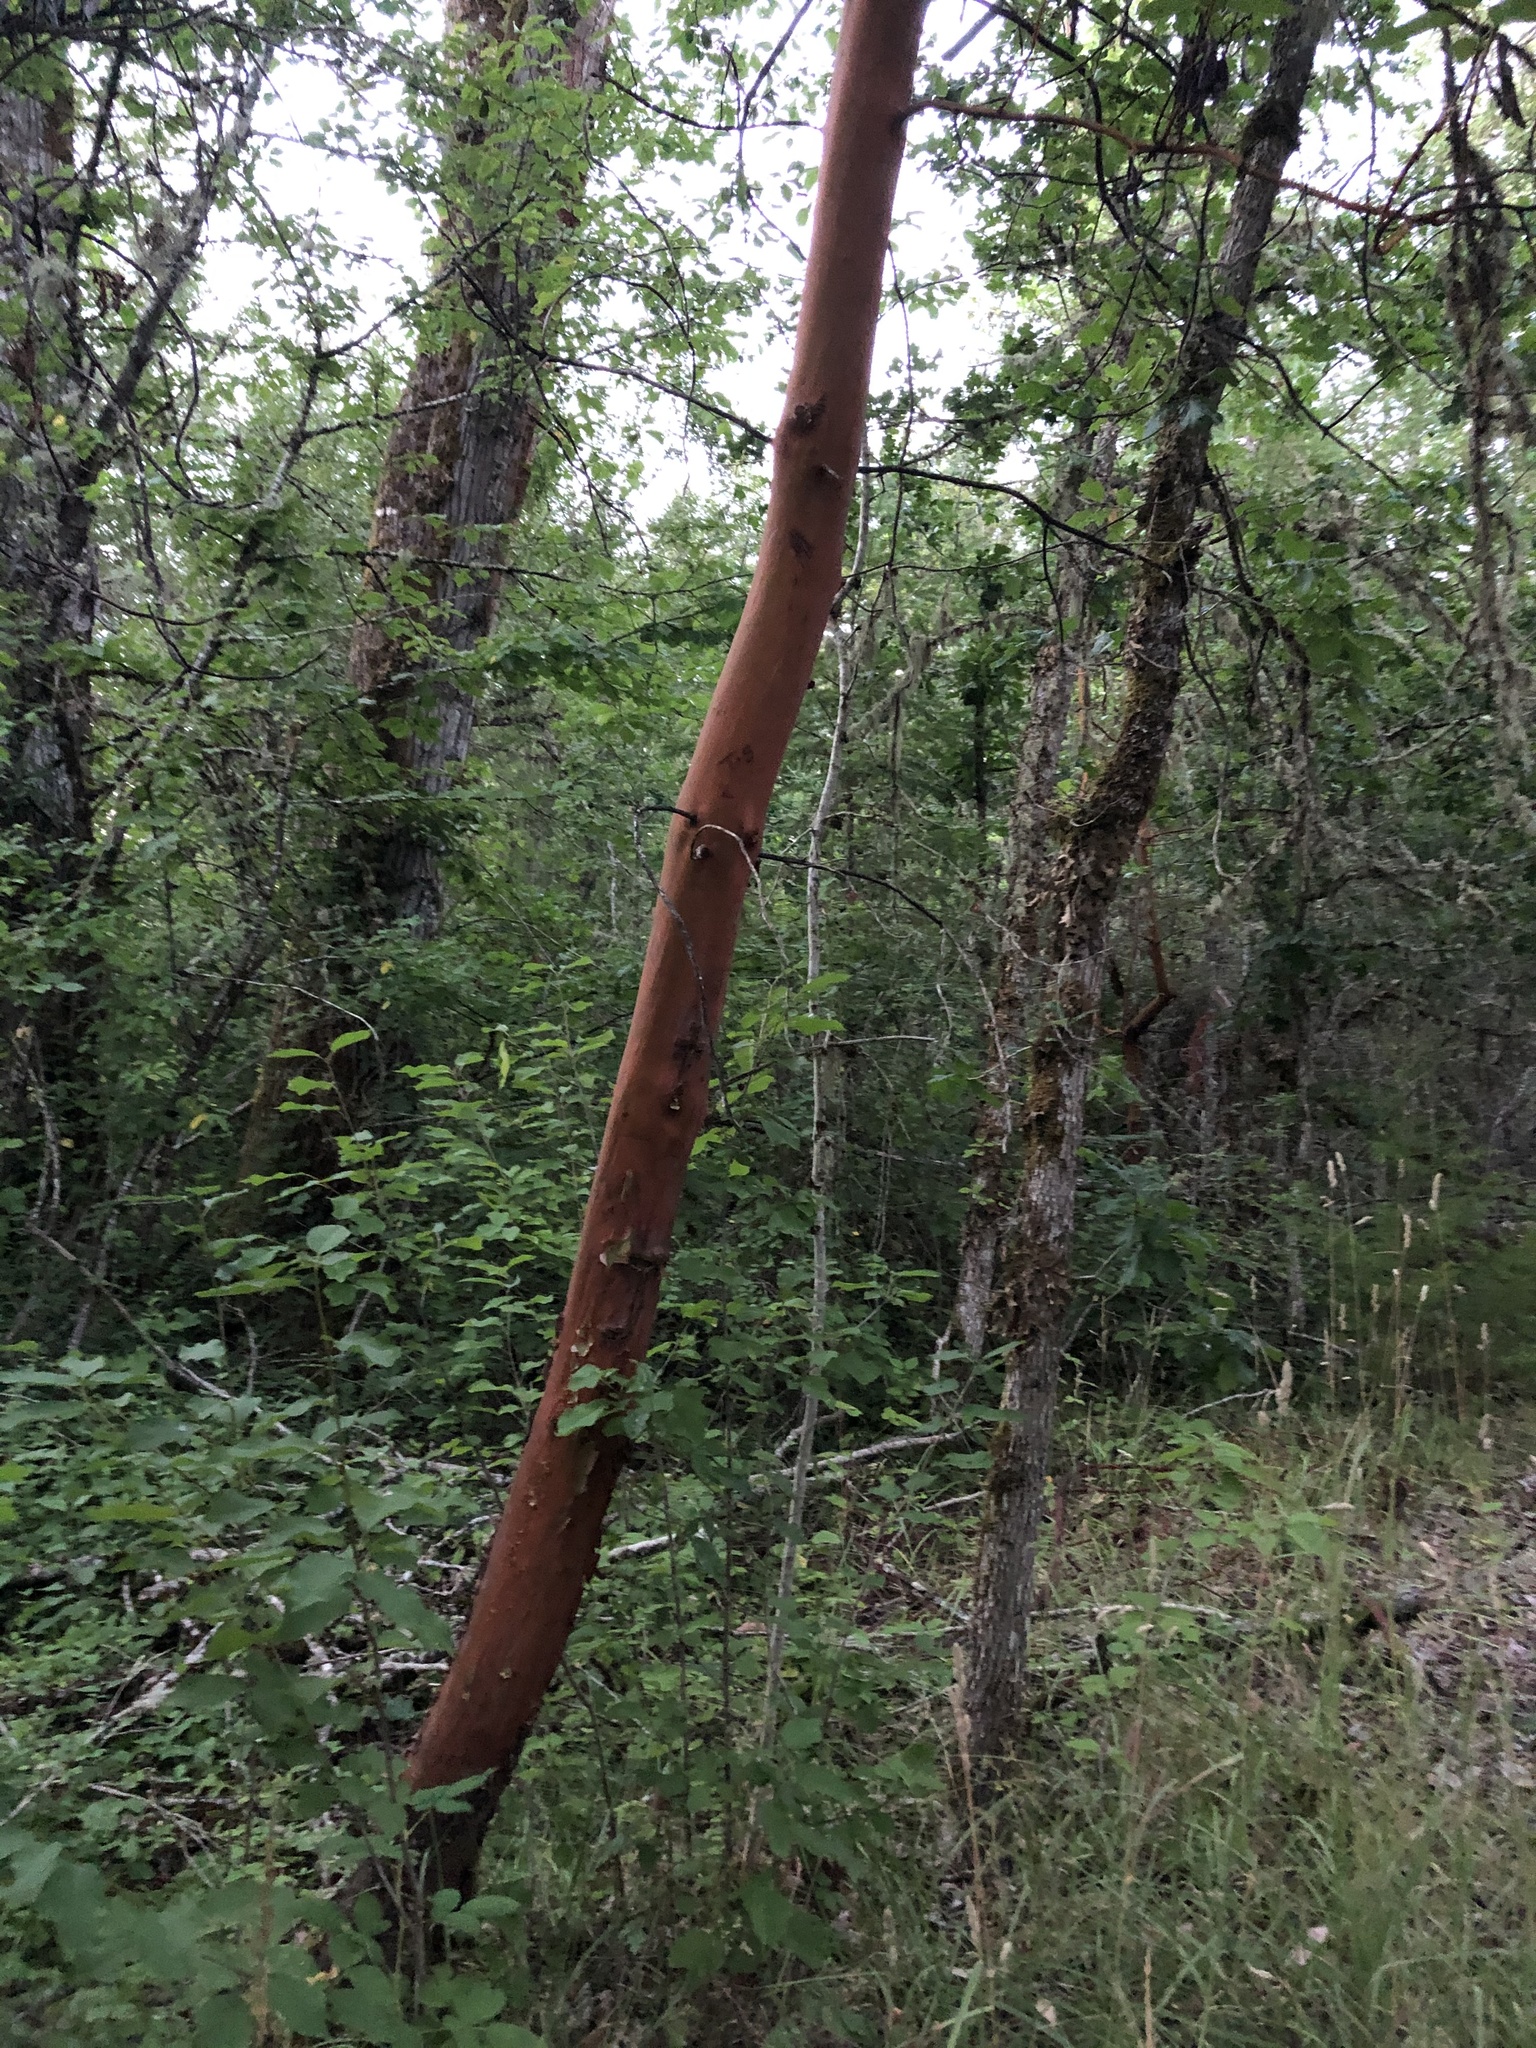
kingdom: Plantae
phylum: Tracheophyta
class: Magnoliopsida
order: Ericales
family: Ericaceae
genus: Arbutus
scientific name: Arbutus menziesii
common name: Pacific madrone
